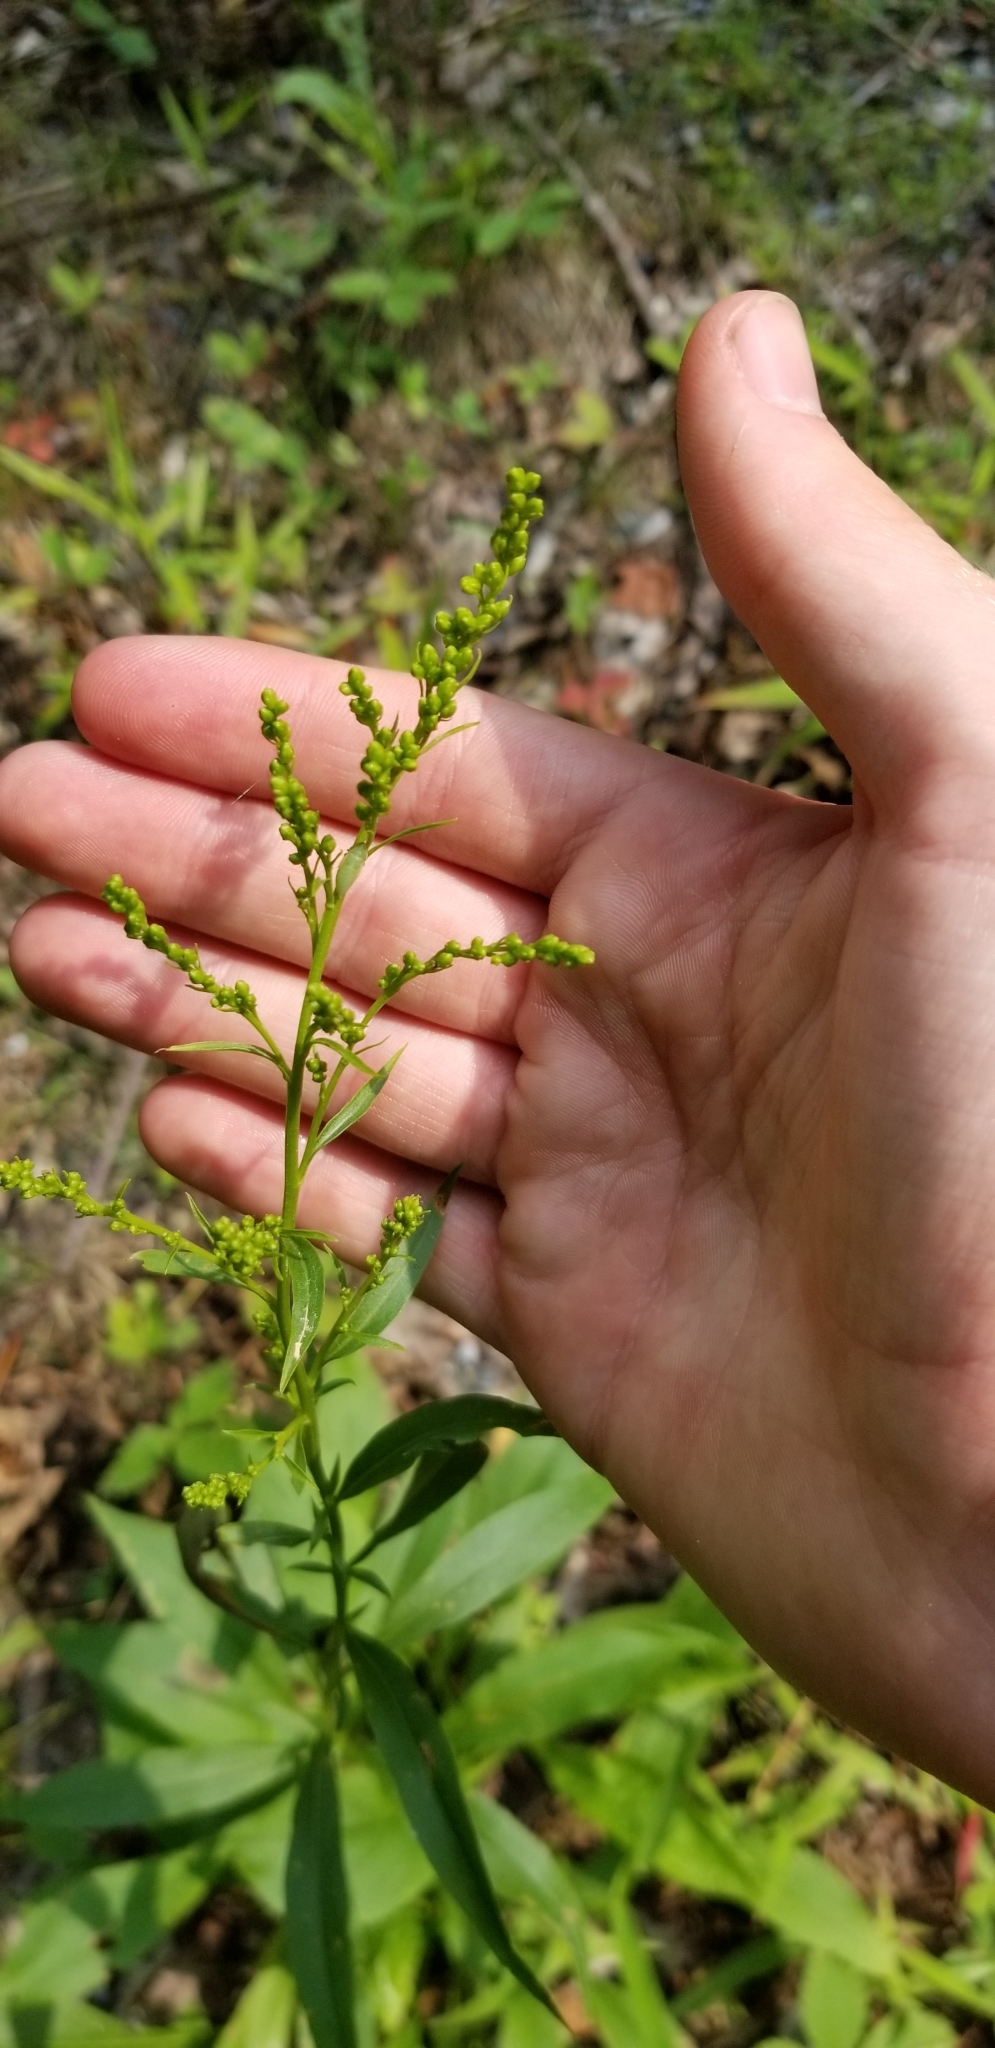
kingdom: Plantae
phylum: Tracheophyta
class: Magnoliopsida
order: Asterales
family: Asteraceae
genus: Solidago
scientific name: Solidago juncea
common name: Early goldenrod
